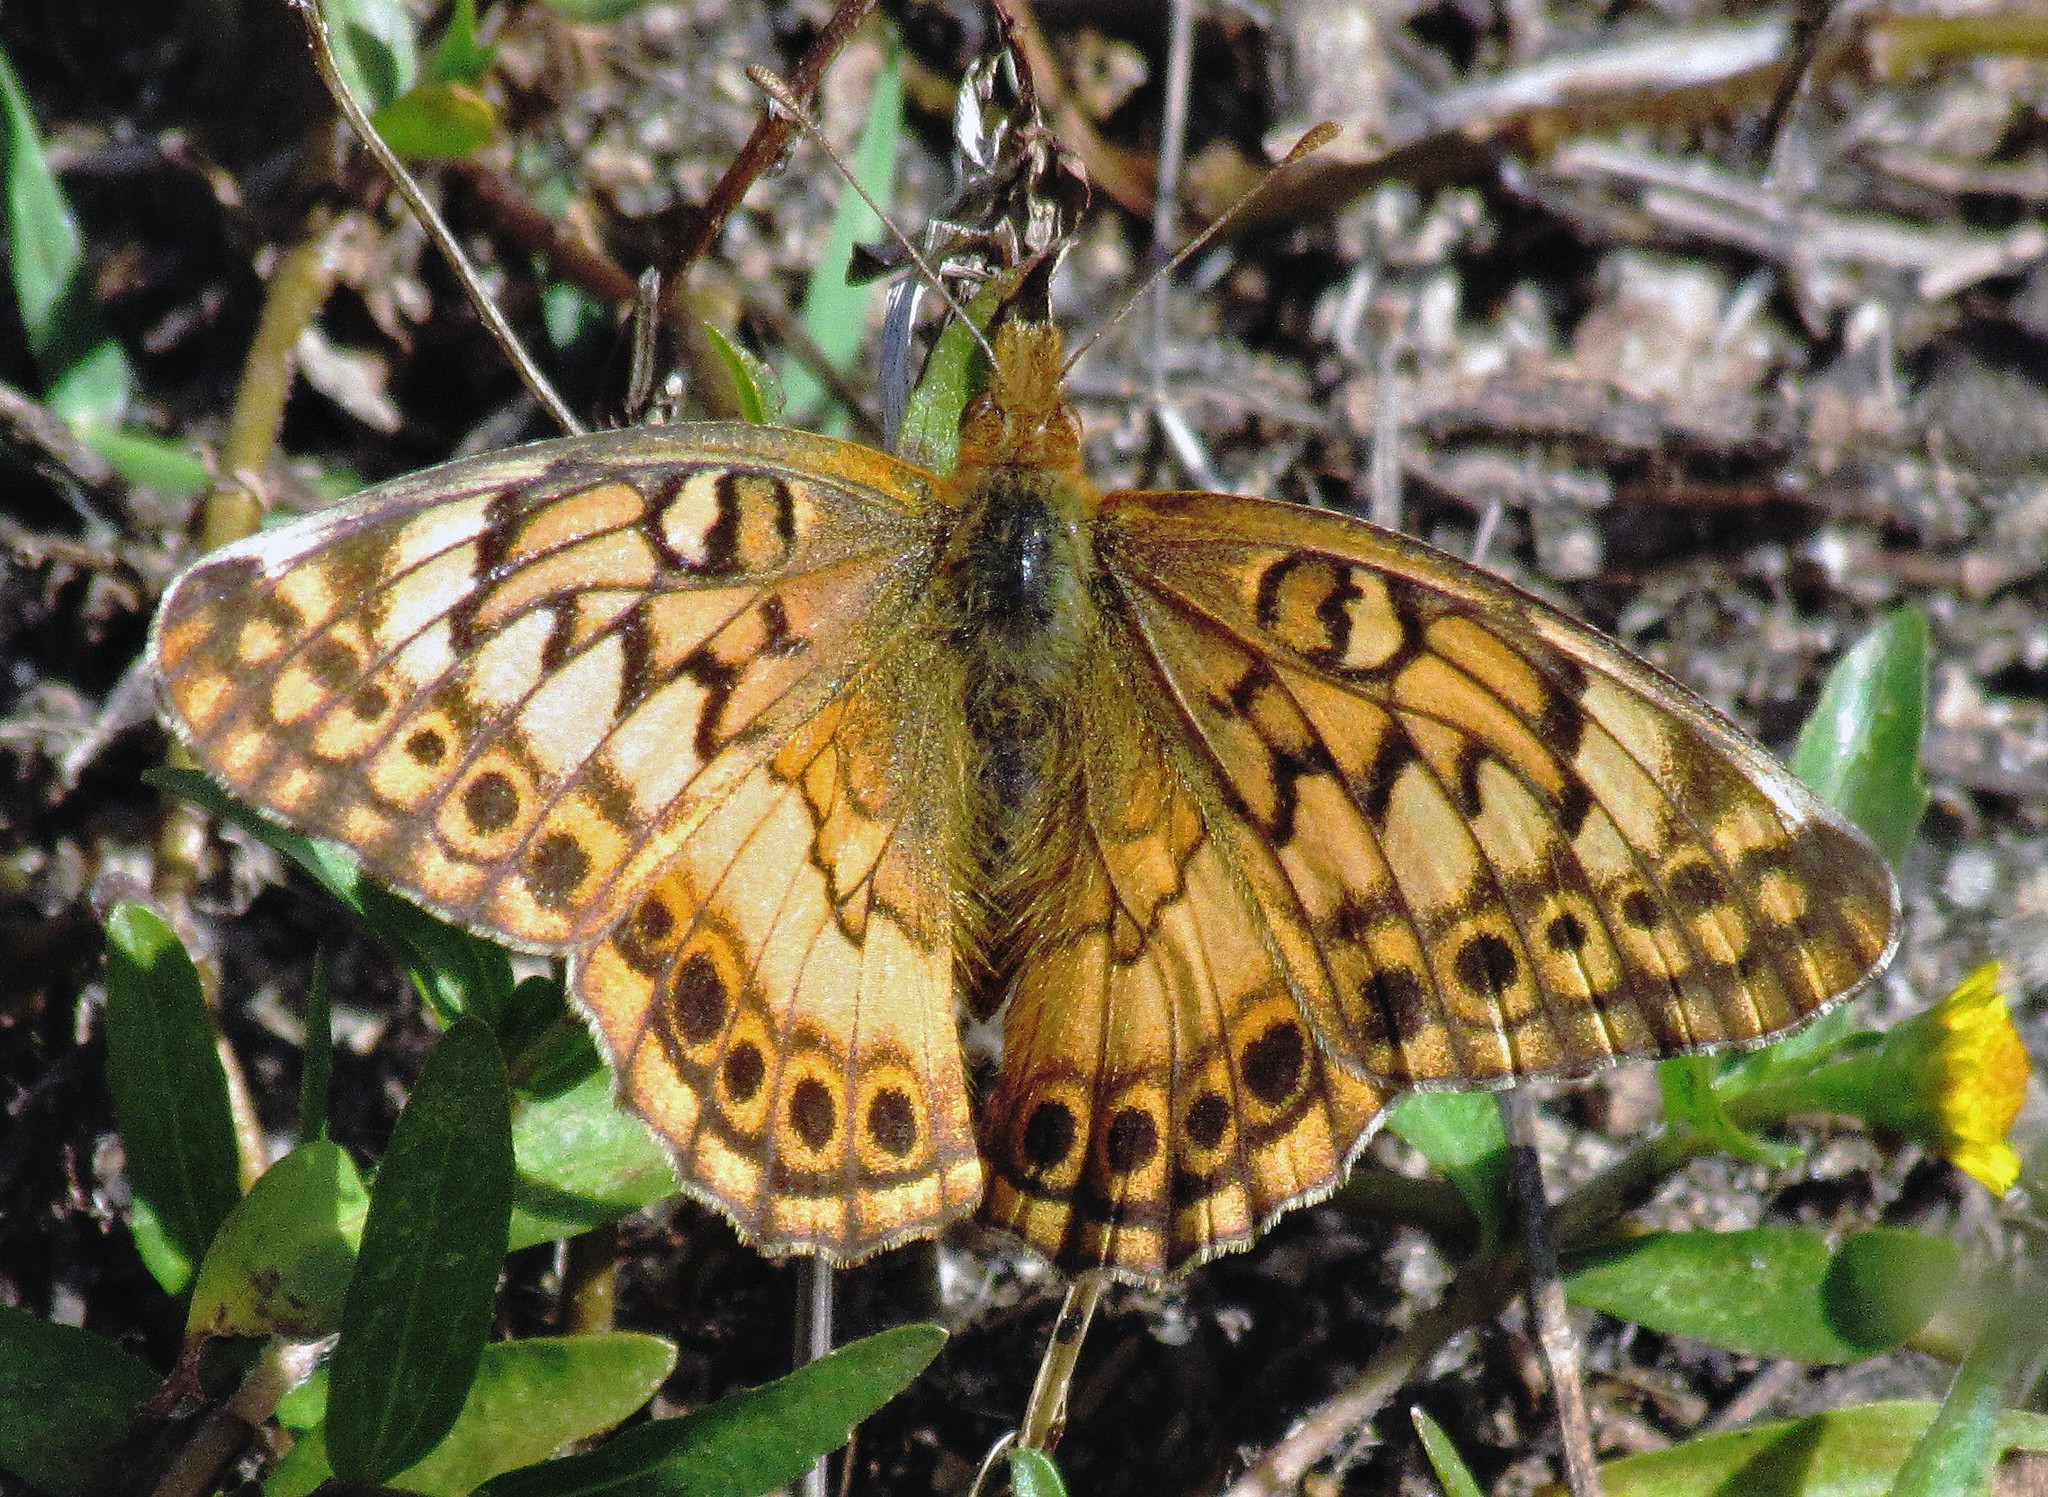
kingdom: Animalia
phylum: Arthropoda
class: Insecta
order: Lepidoptera
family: Nymphalidae
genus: Euptoieta
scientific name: Euptoieta hortensia
